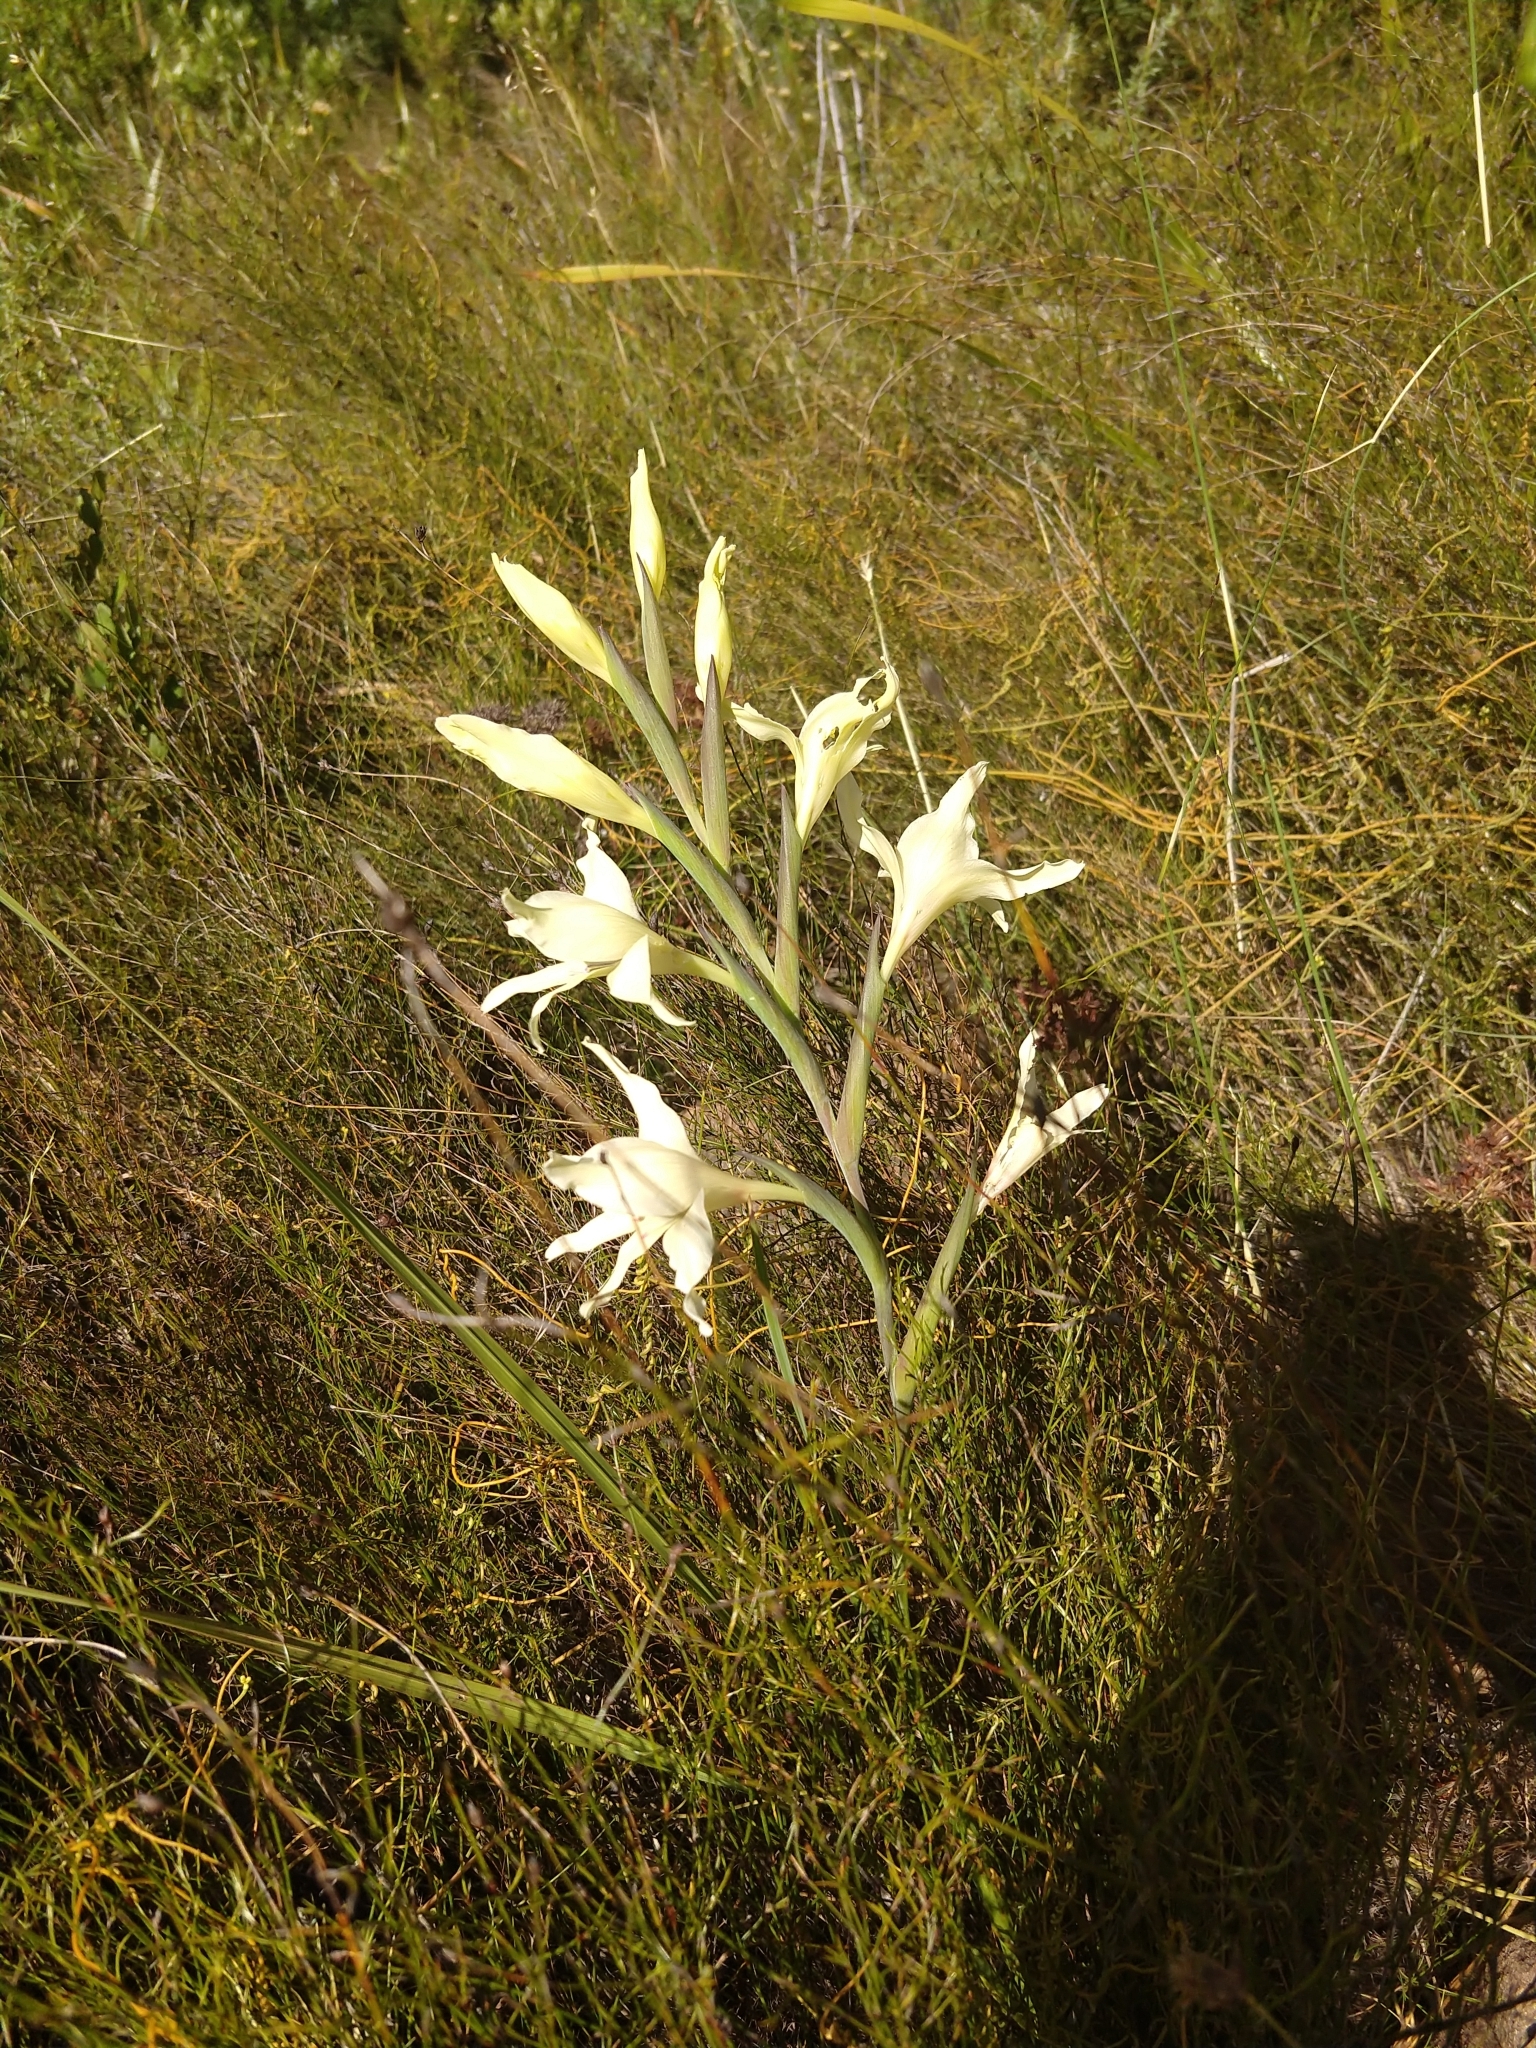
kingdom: Plantae
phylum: Tracheophyta
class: Liliopsida
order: Asparagales
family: Iridaceae
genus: Gladiolus
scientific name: Gladiolus undulatus
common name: Large painted-lady
